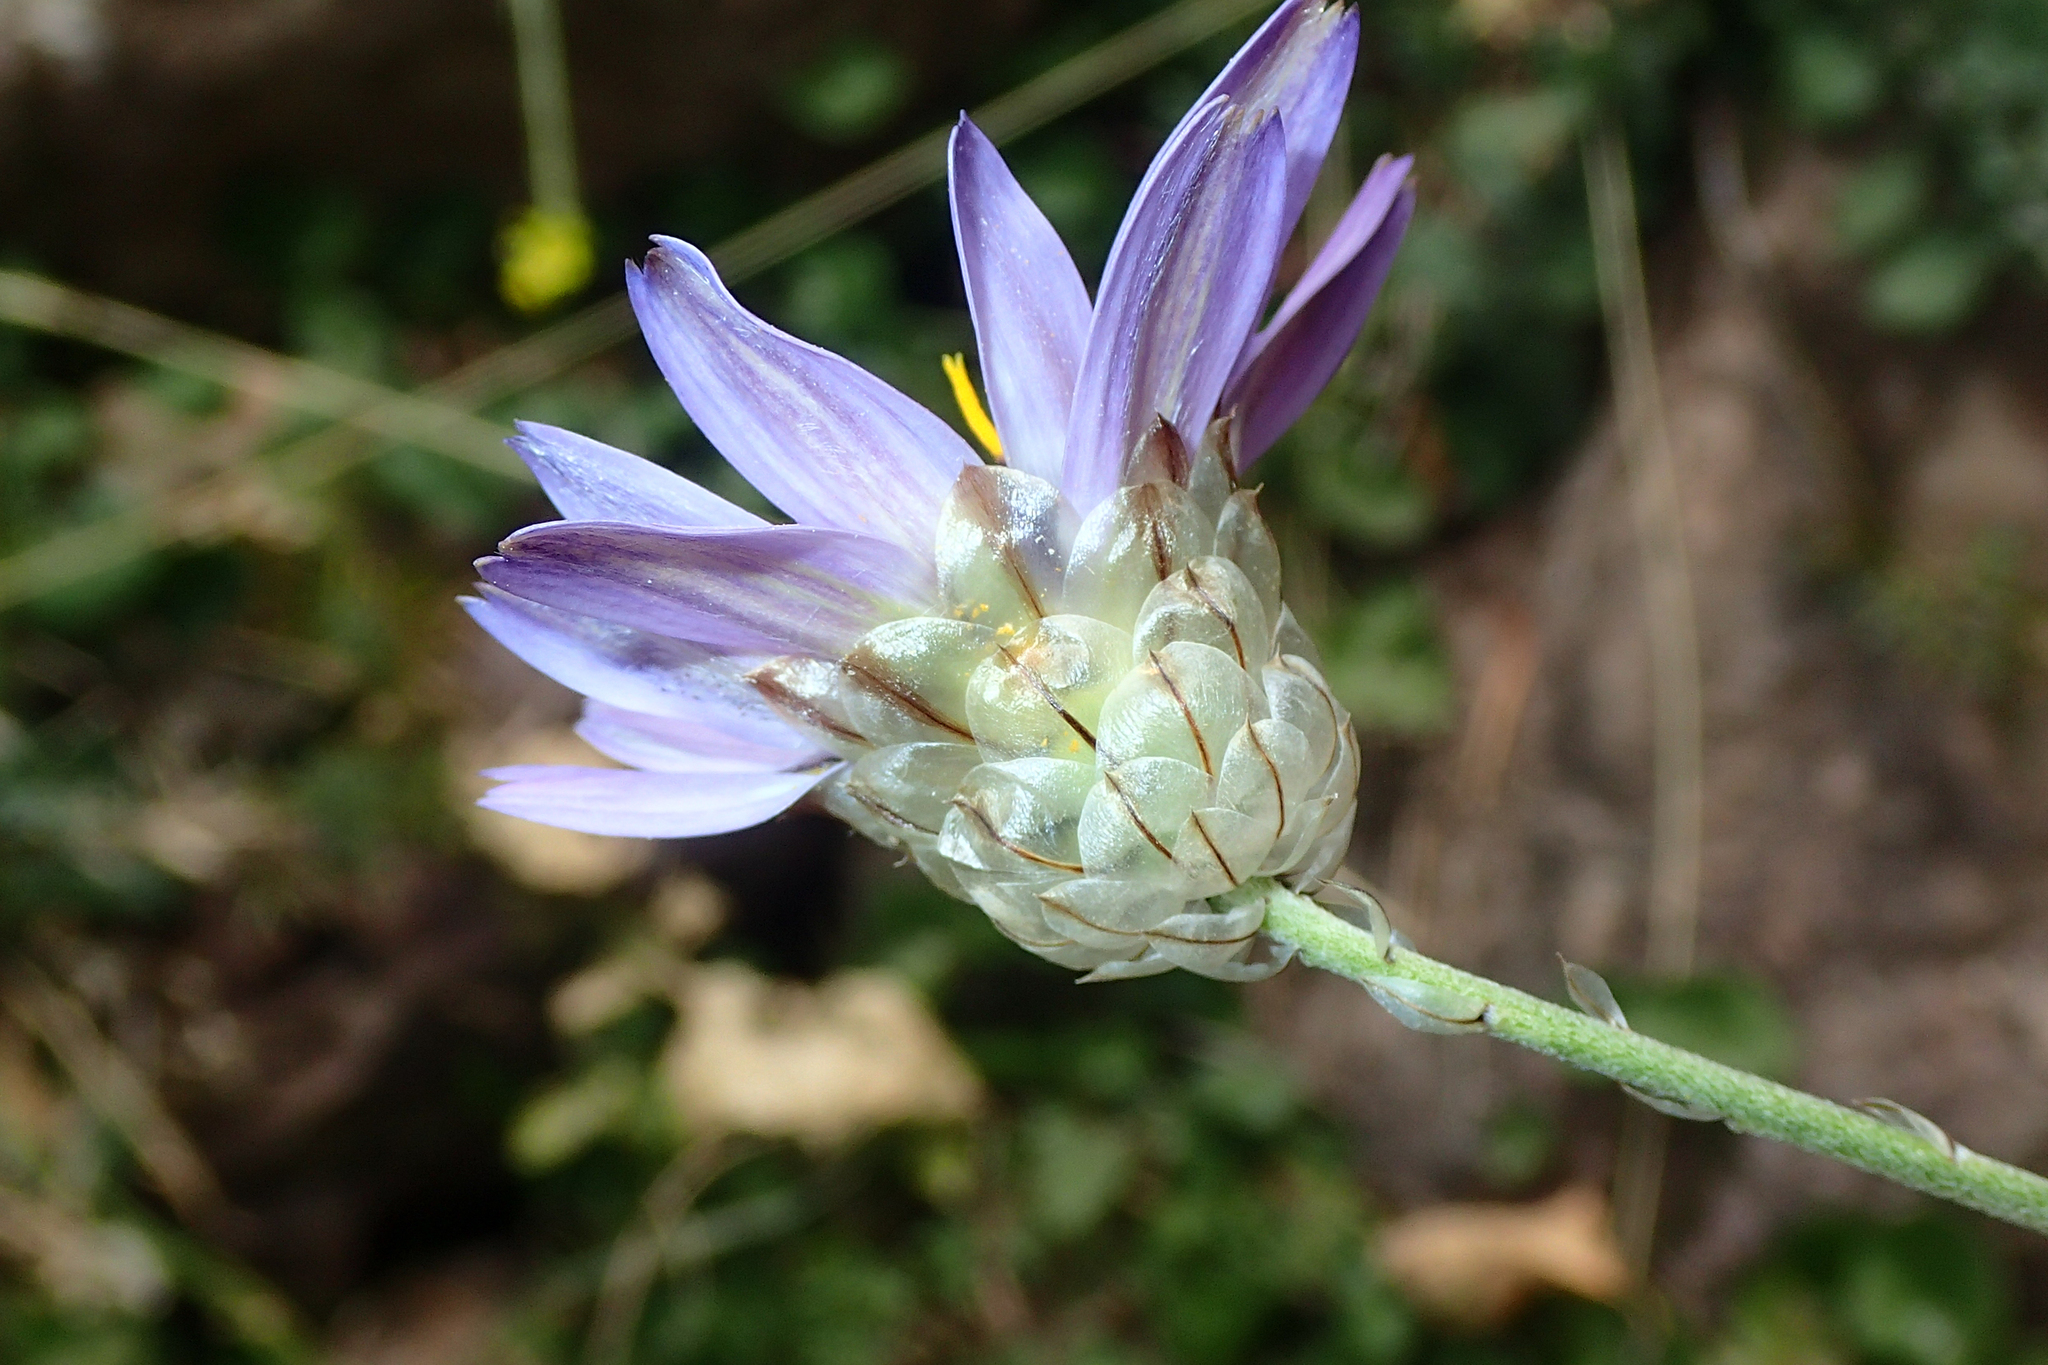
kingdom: Plantae
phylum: Tracheophyta
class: Magnoliopsida
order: Asterales
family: Asteraceae
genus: Catananche
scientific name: Catananche caerulea
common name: Blue cupidone
